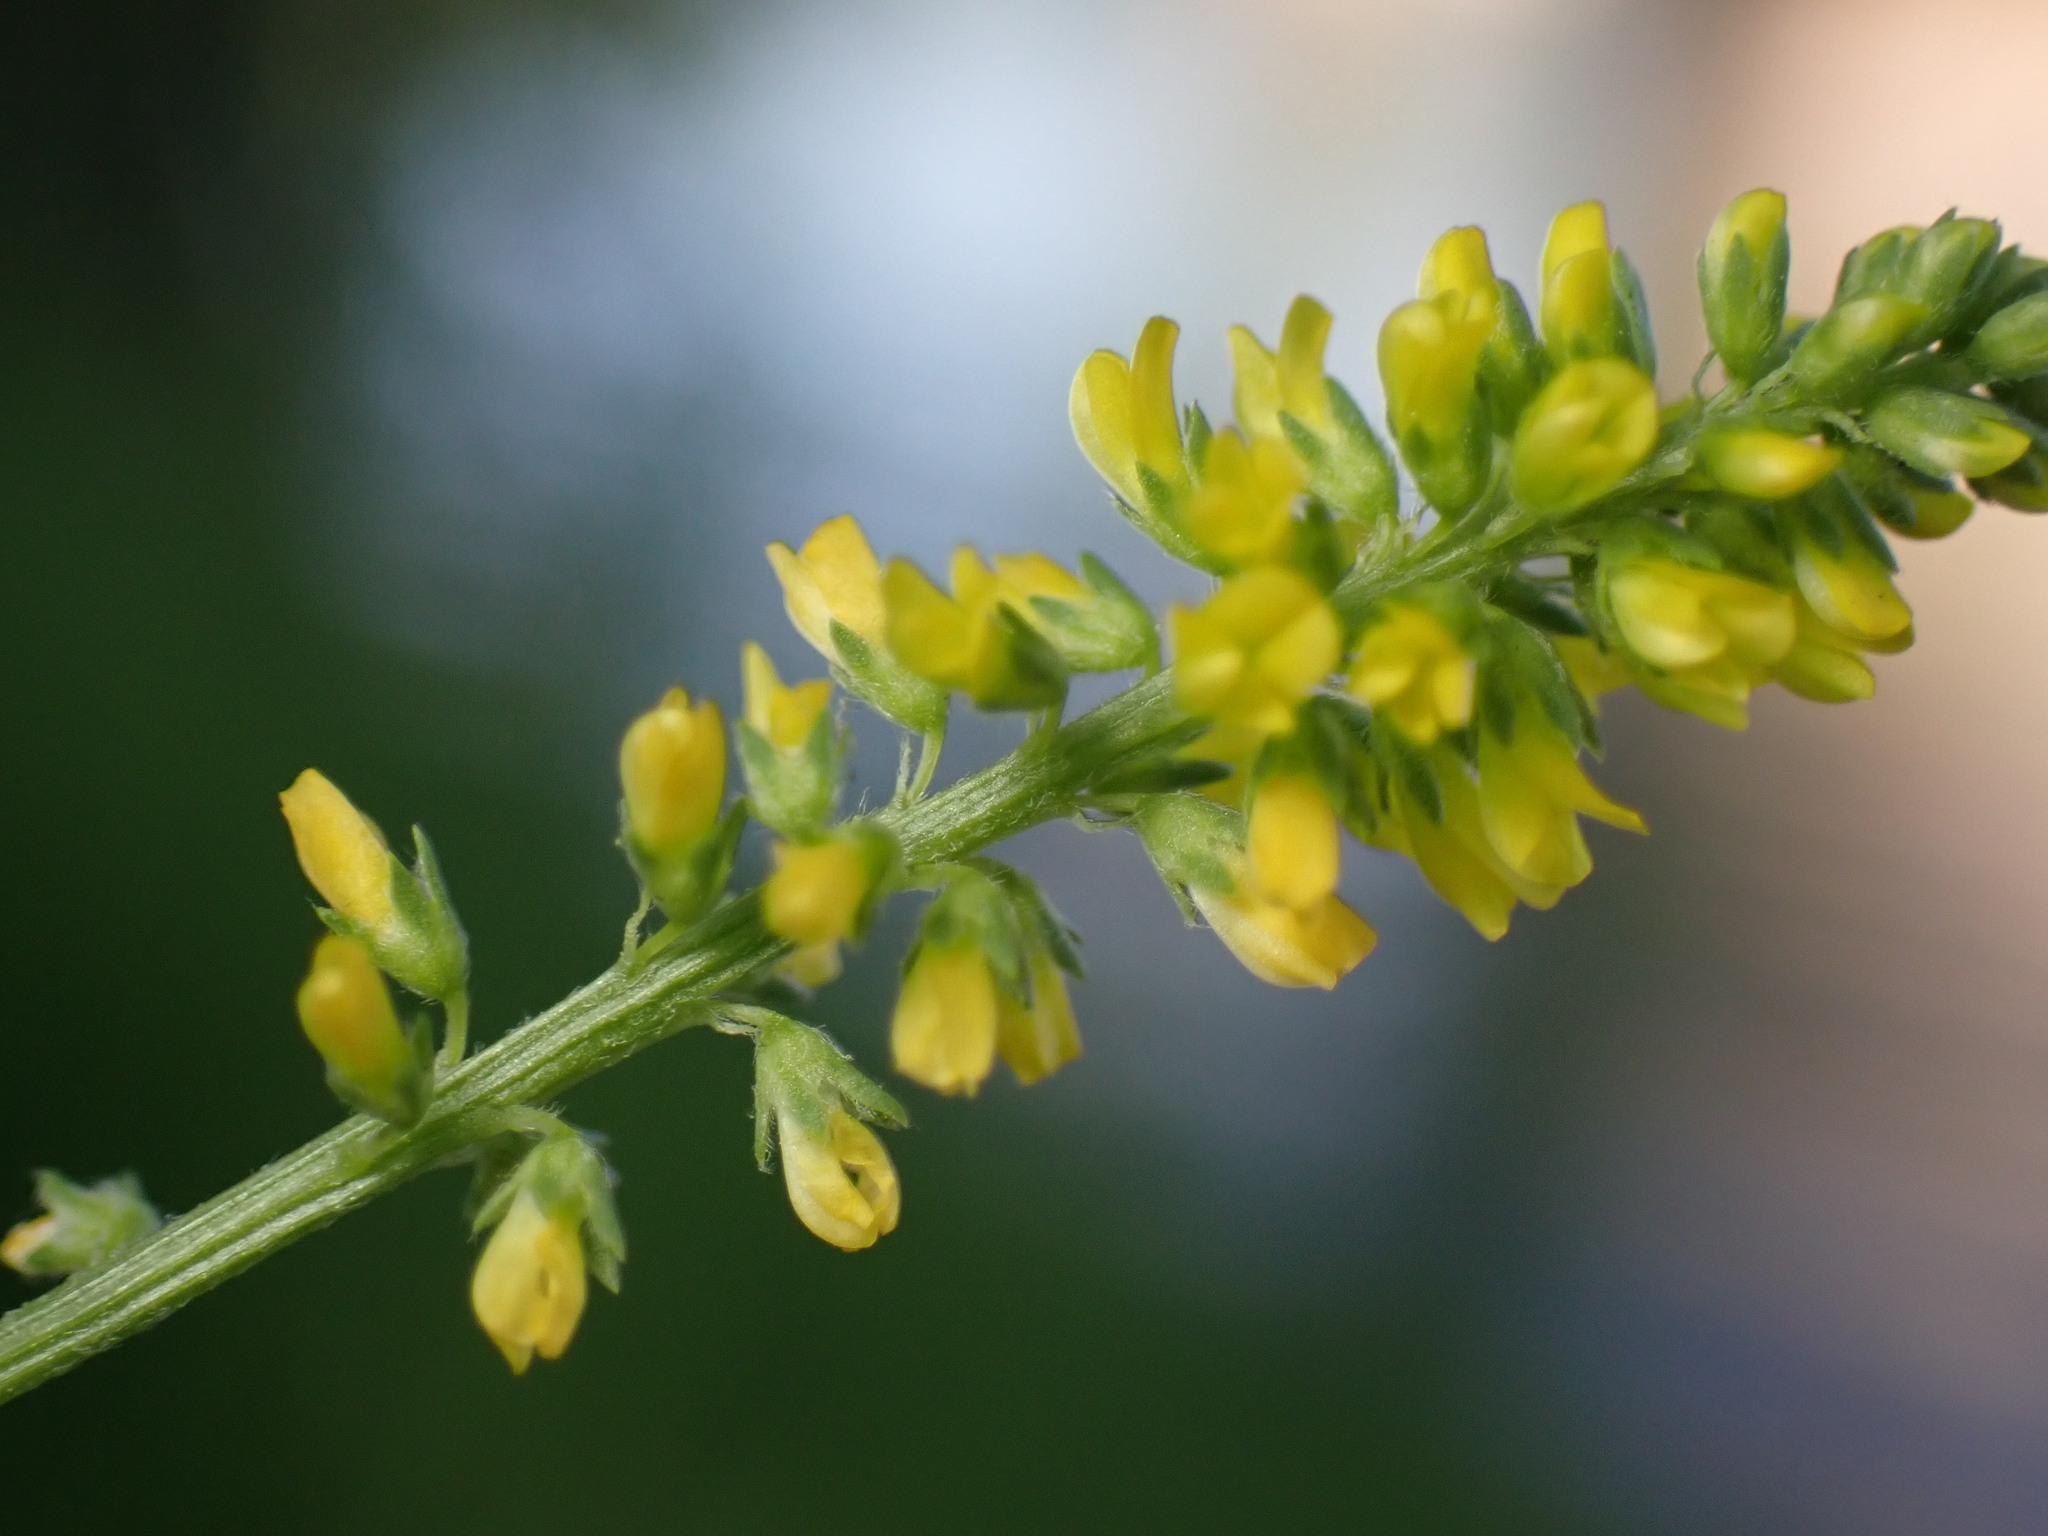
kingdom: Plantae
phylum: Tracheophyta
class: Magnoliopsida
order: Fabales
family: Fabaceae
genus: Melilotus
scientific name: Melilotus indicus
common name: Small melilot
